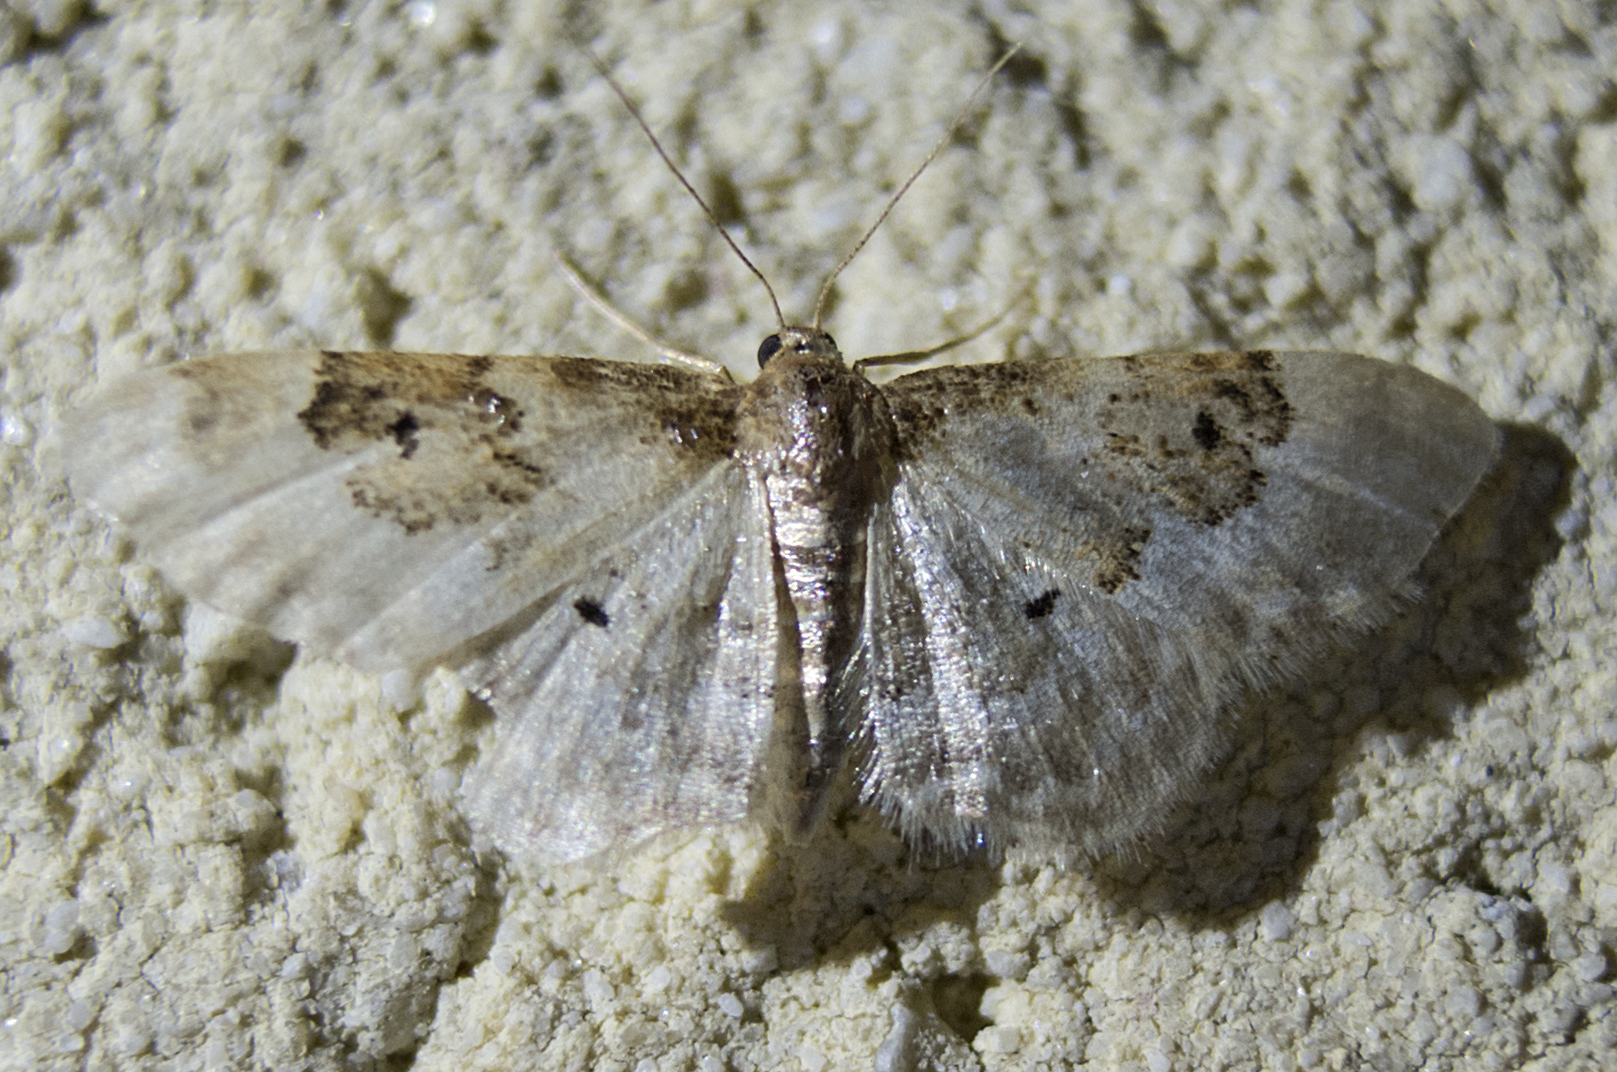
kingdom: Animalia
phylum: Arthropoda
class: Insecta
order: Lepidoptera
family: Geometridae
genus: Idaea
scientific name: Idaea rusticata
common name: Least carpet
